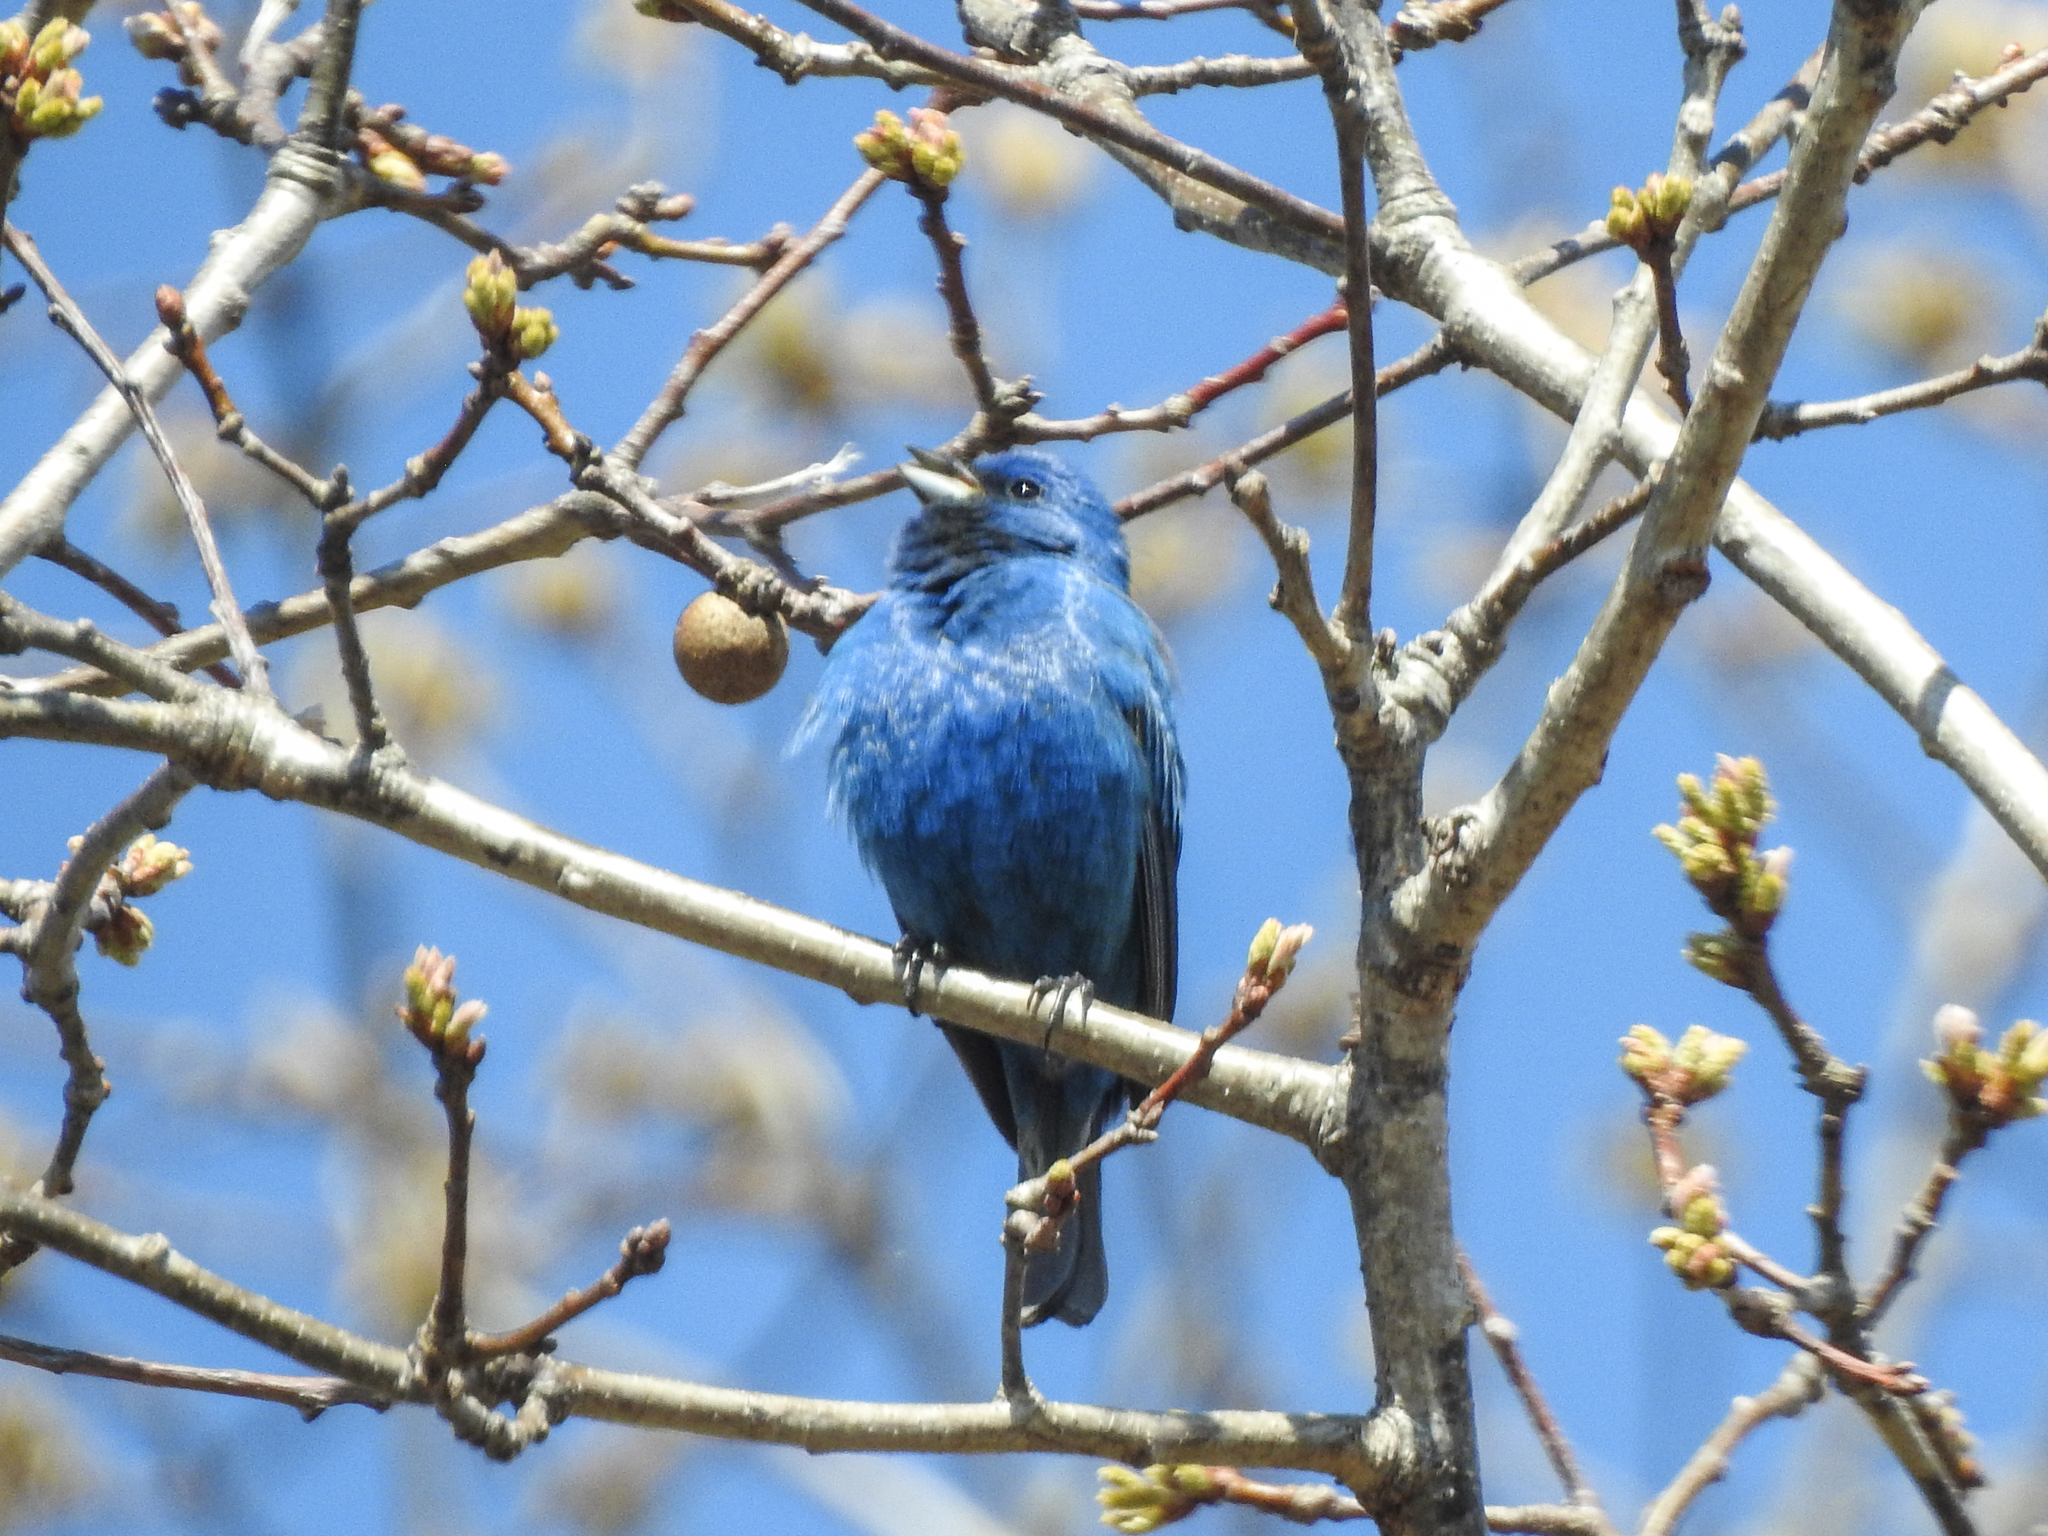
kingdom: Animalia
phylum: Chordata
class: Aves
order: Passeriformes
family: Cardinalidae
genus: Passerina
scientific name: Passerina cyanea
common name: Indigo bunting
